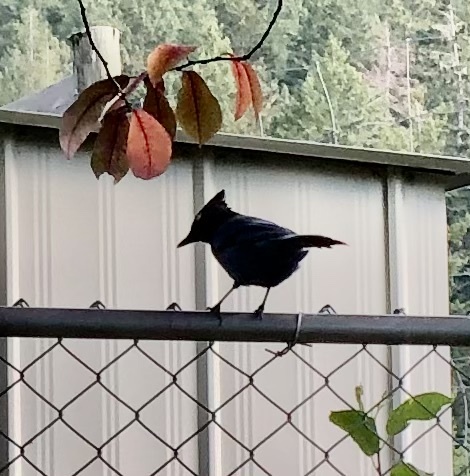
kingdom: Animalia
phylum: Chordata
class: Aves
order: Passeriformes
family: Corvidae
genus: Cyanocitta
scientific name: Cyanocitta stelleri
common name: Steller's jay
